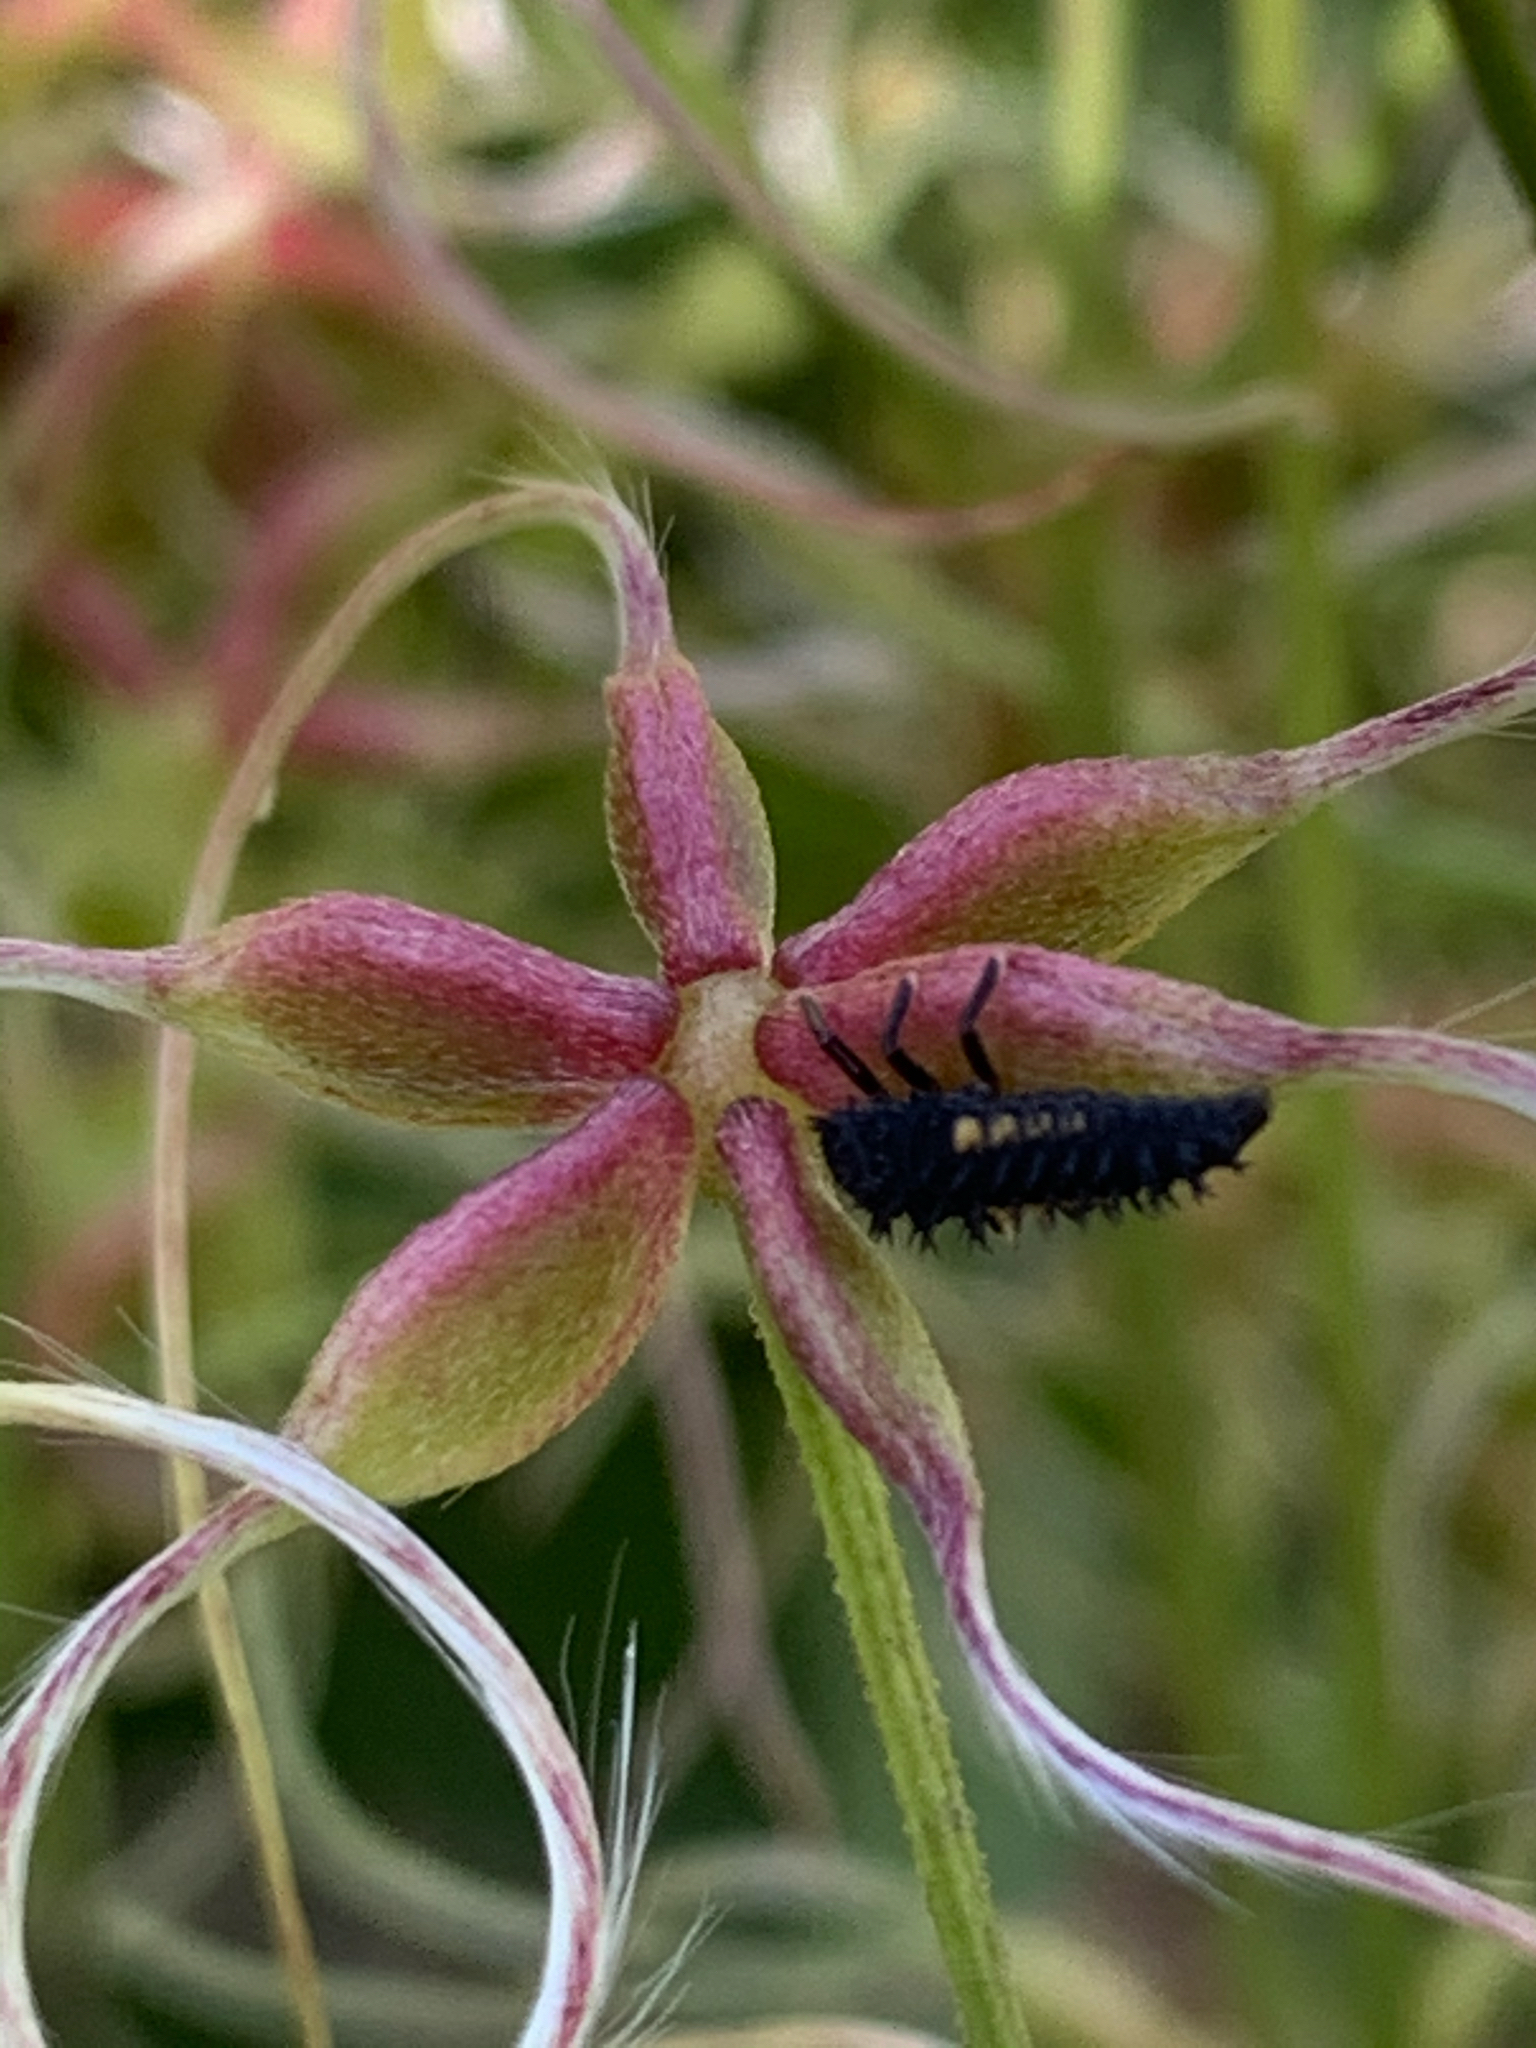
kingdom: Animalia
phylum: Arthropoda
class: Insecta
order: Coleoptera
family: Coccinellidae
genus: Harmonia
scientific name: Harmonia axyridis
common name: Harlequin ladybird
